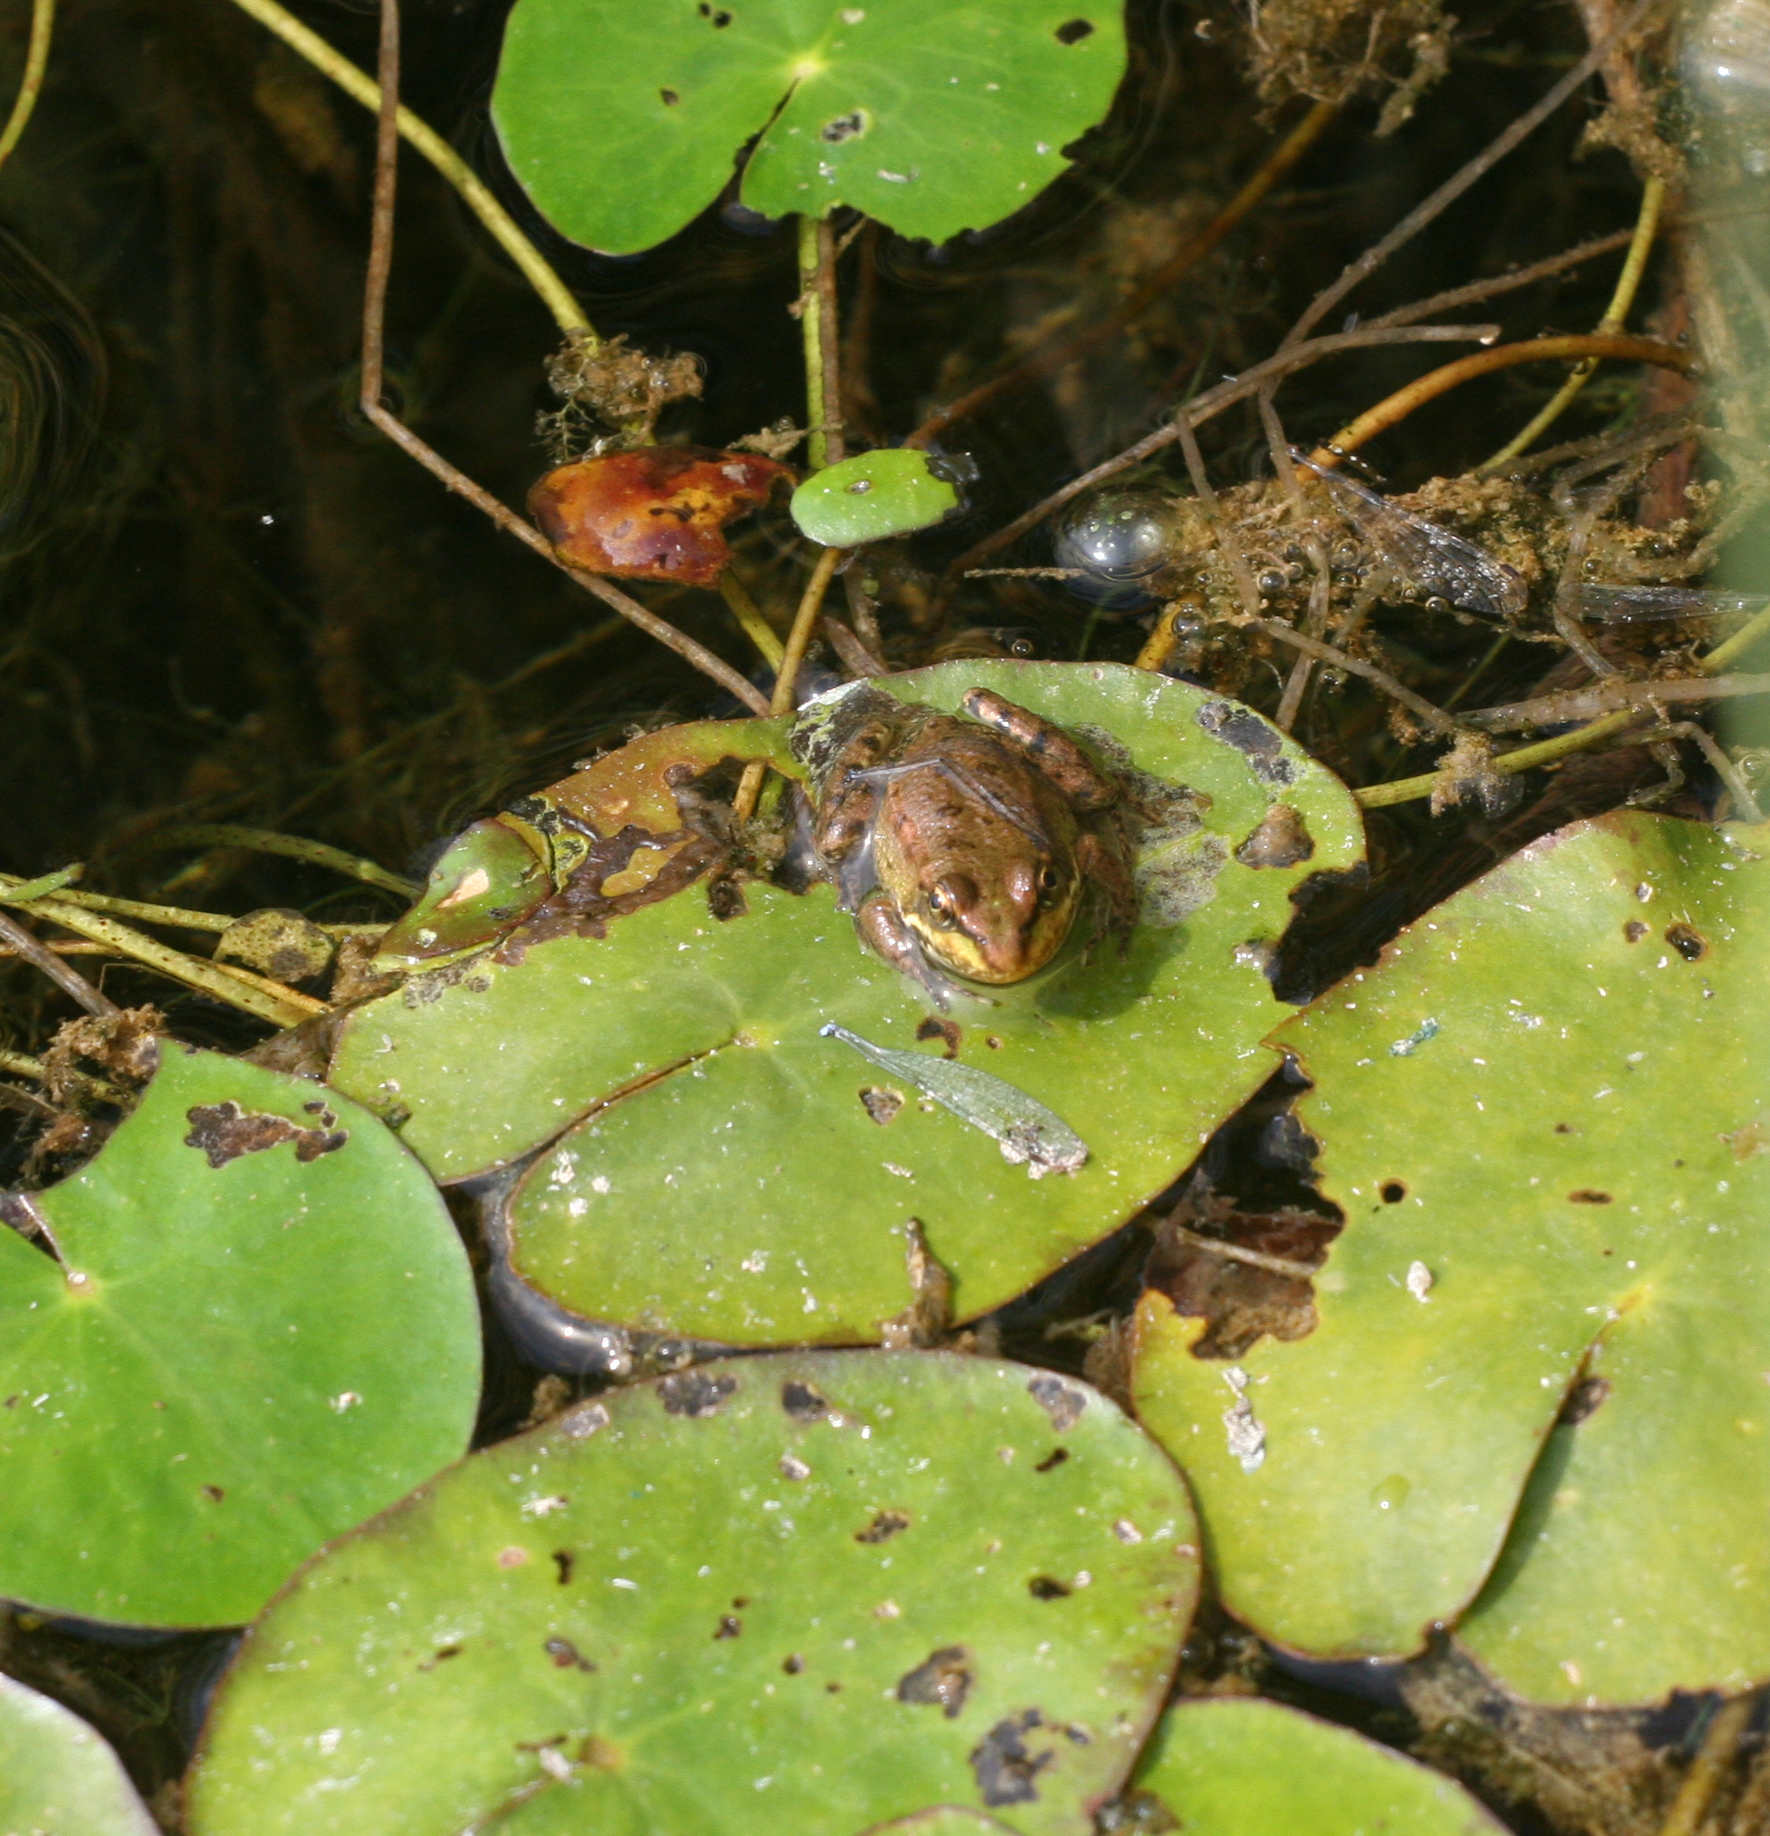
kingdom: Animalia
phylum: Chordata
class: Amphibia
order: Anura
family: Ranidae
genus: Pelophylax
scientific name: Pelophylax ridibundus
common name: Marsh frog
